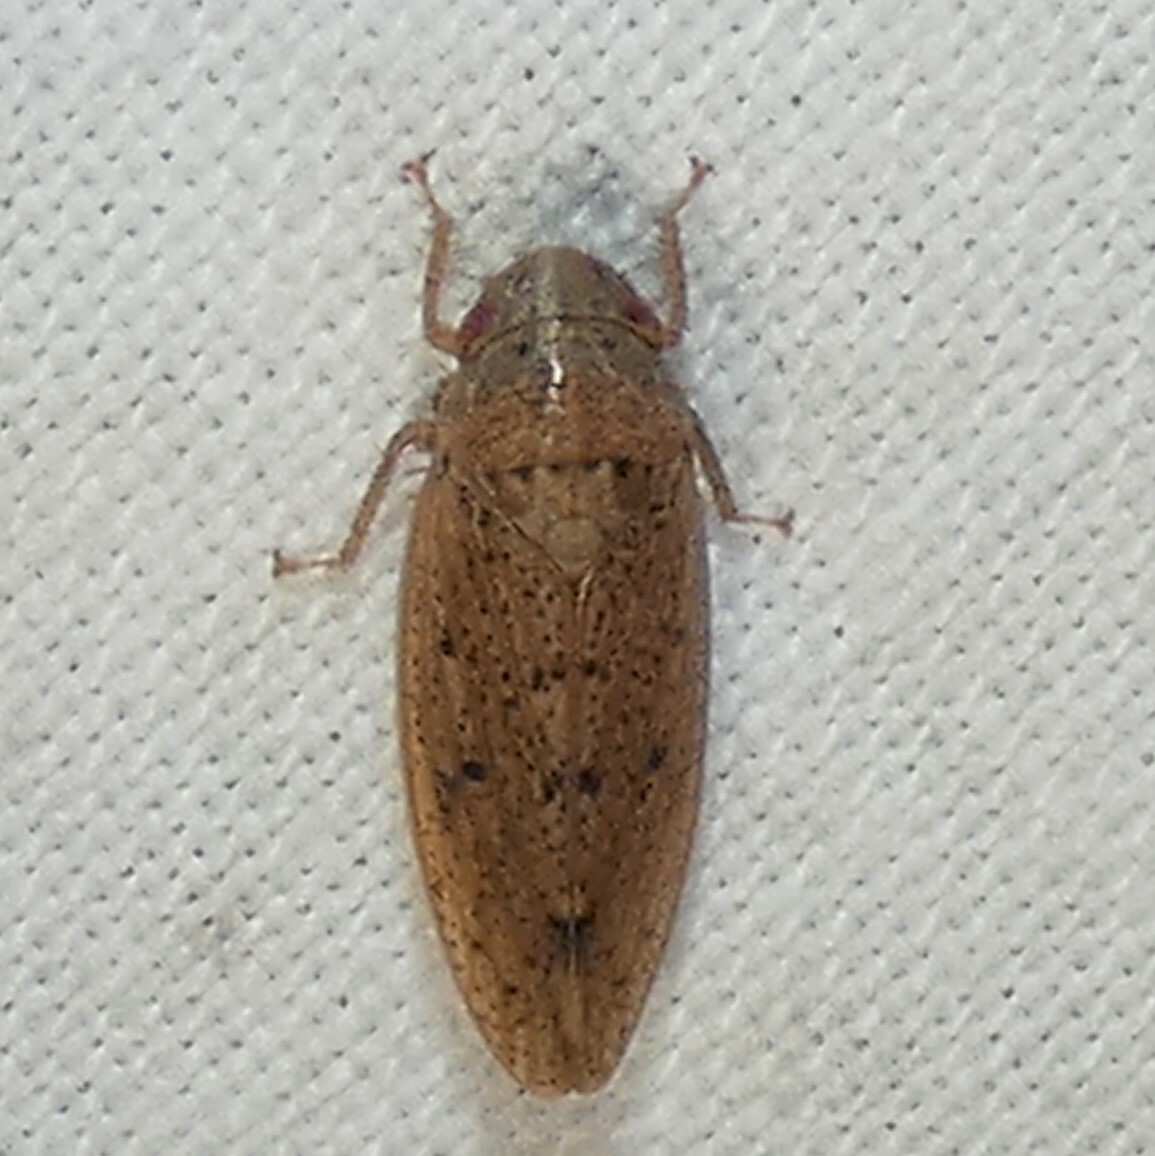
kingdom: Animalia
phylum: Arthropoda
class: Insecta
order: Hemiptera
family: Cicadellidae
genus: Ponana
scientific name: Ponana puncticollis
